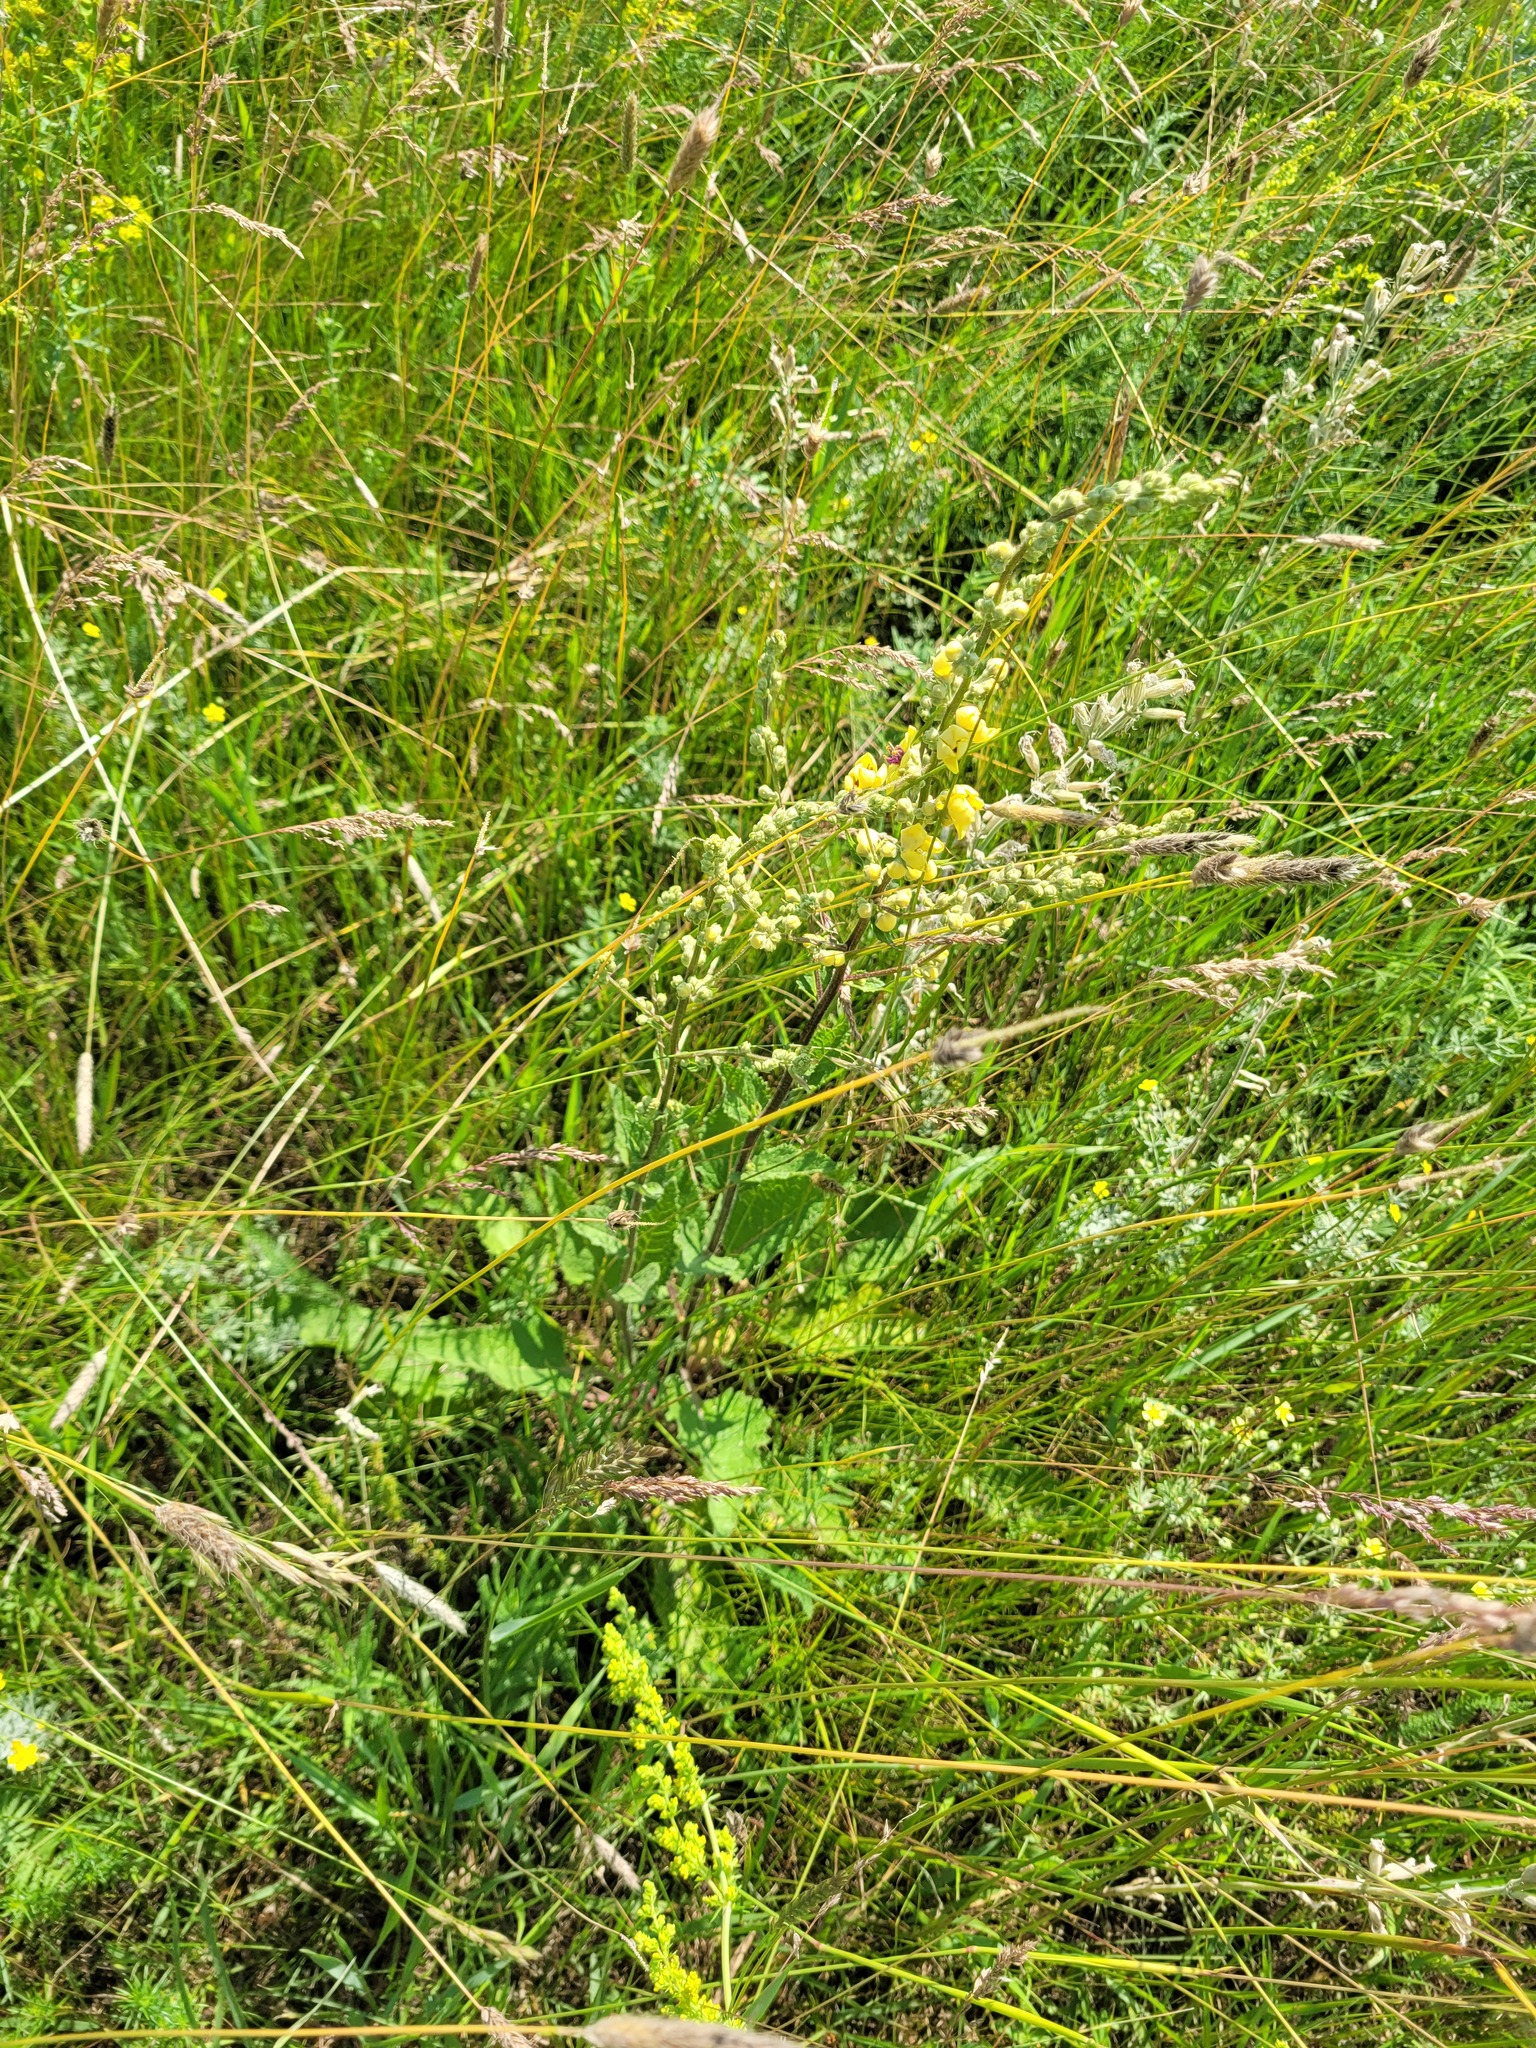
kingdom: Plantae
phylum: Tracheophyta
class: Magnoliopsida
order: Lamiales
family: Scrophulariaceae
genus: Verbascum
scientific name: Verbascum chaixii
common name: Nettle-leaved mullein
